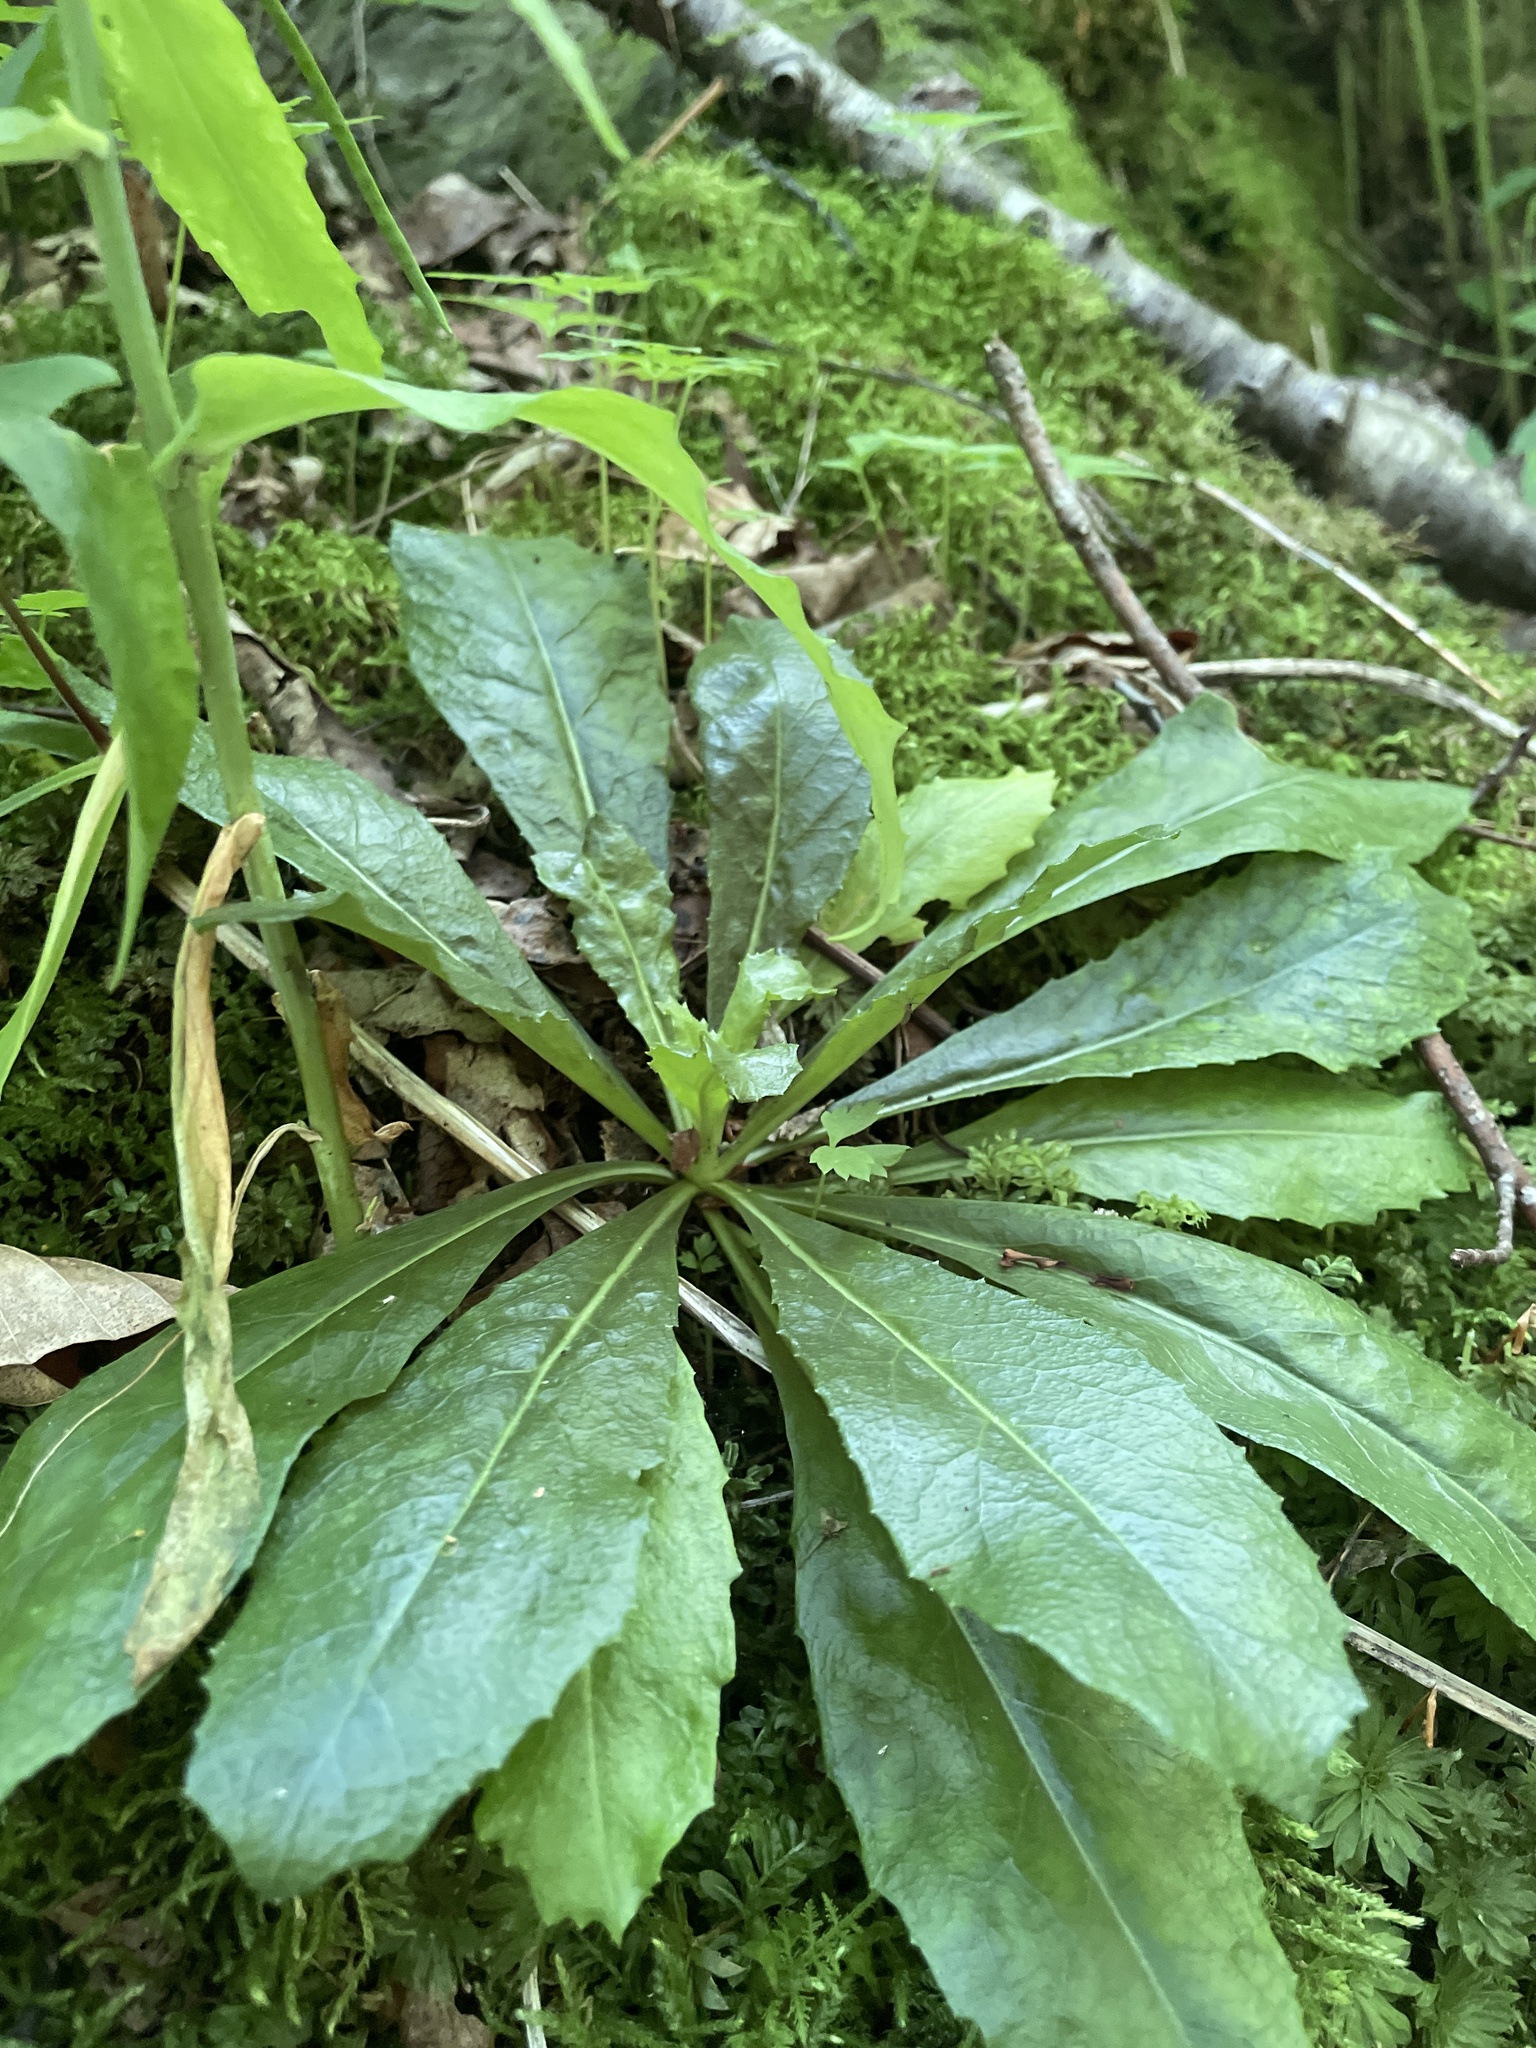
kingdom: Plantae
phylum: Tracheophyta
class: Magnoliopsida
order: Brassicales
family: Brassicaceae
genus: Borodinia
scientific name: Borodinia laevigata
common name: Smooth rockcress
